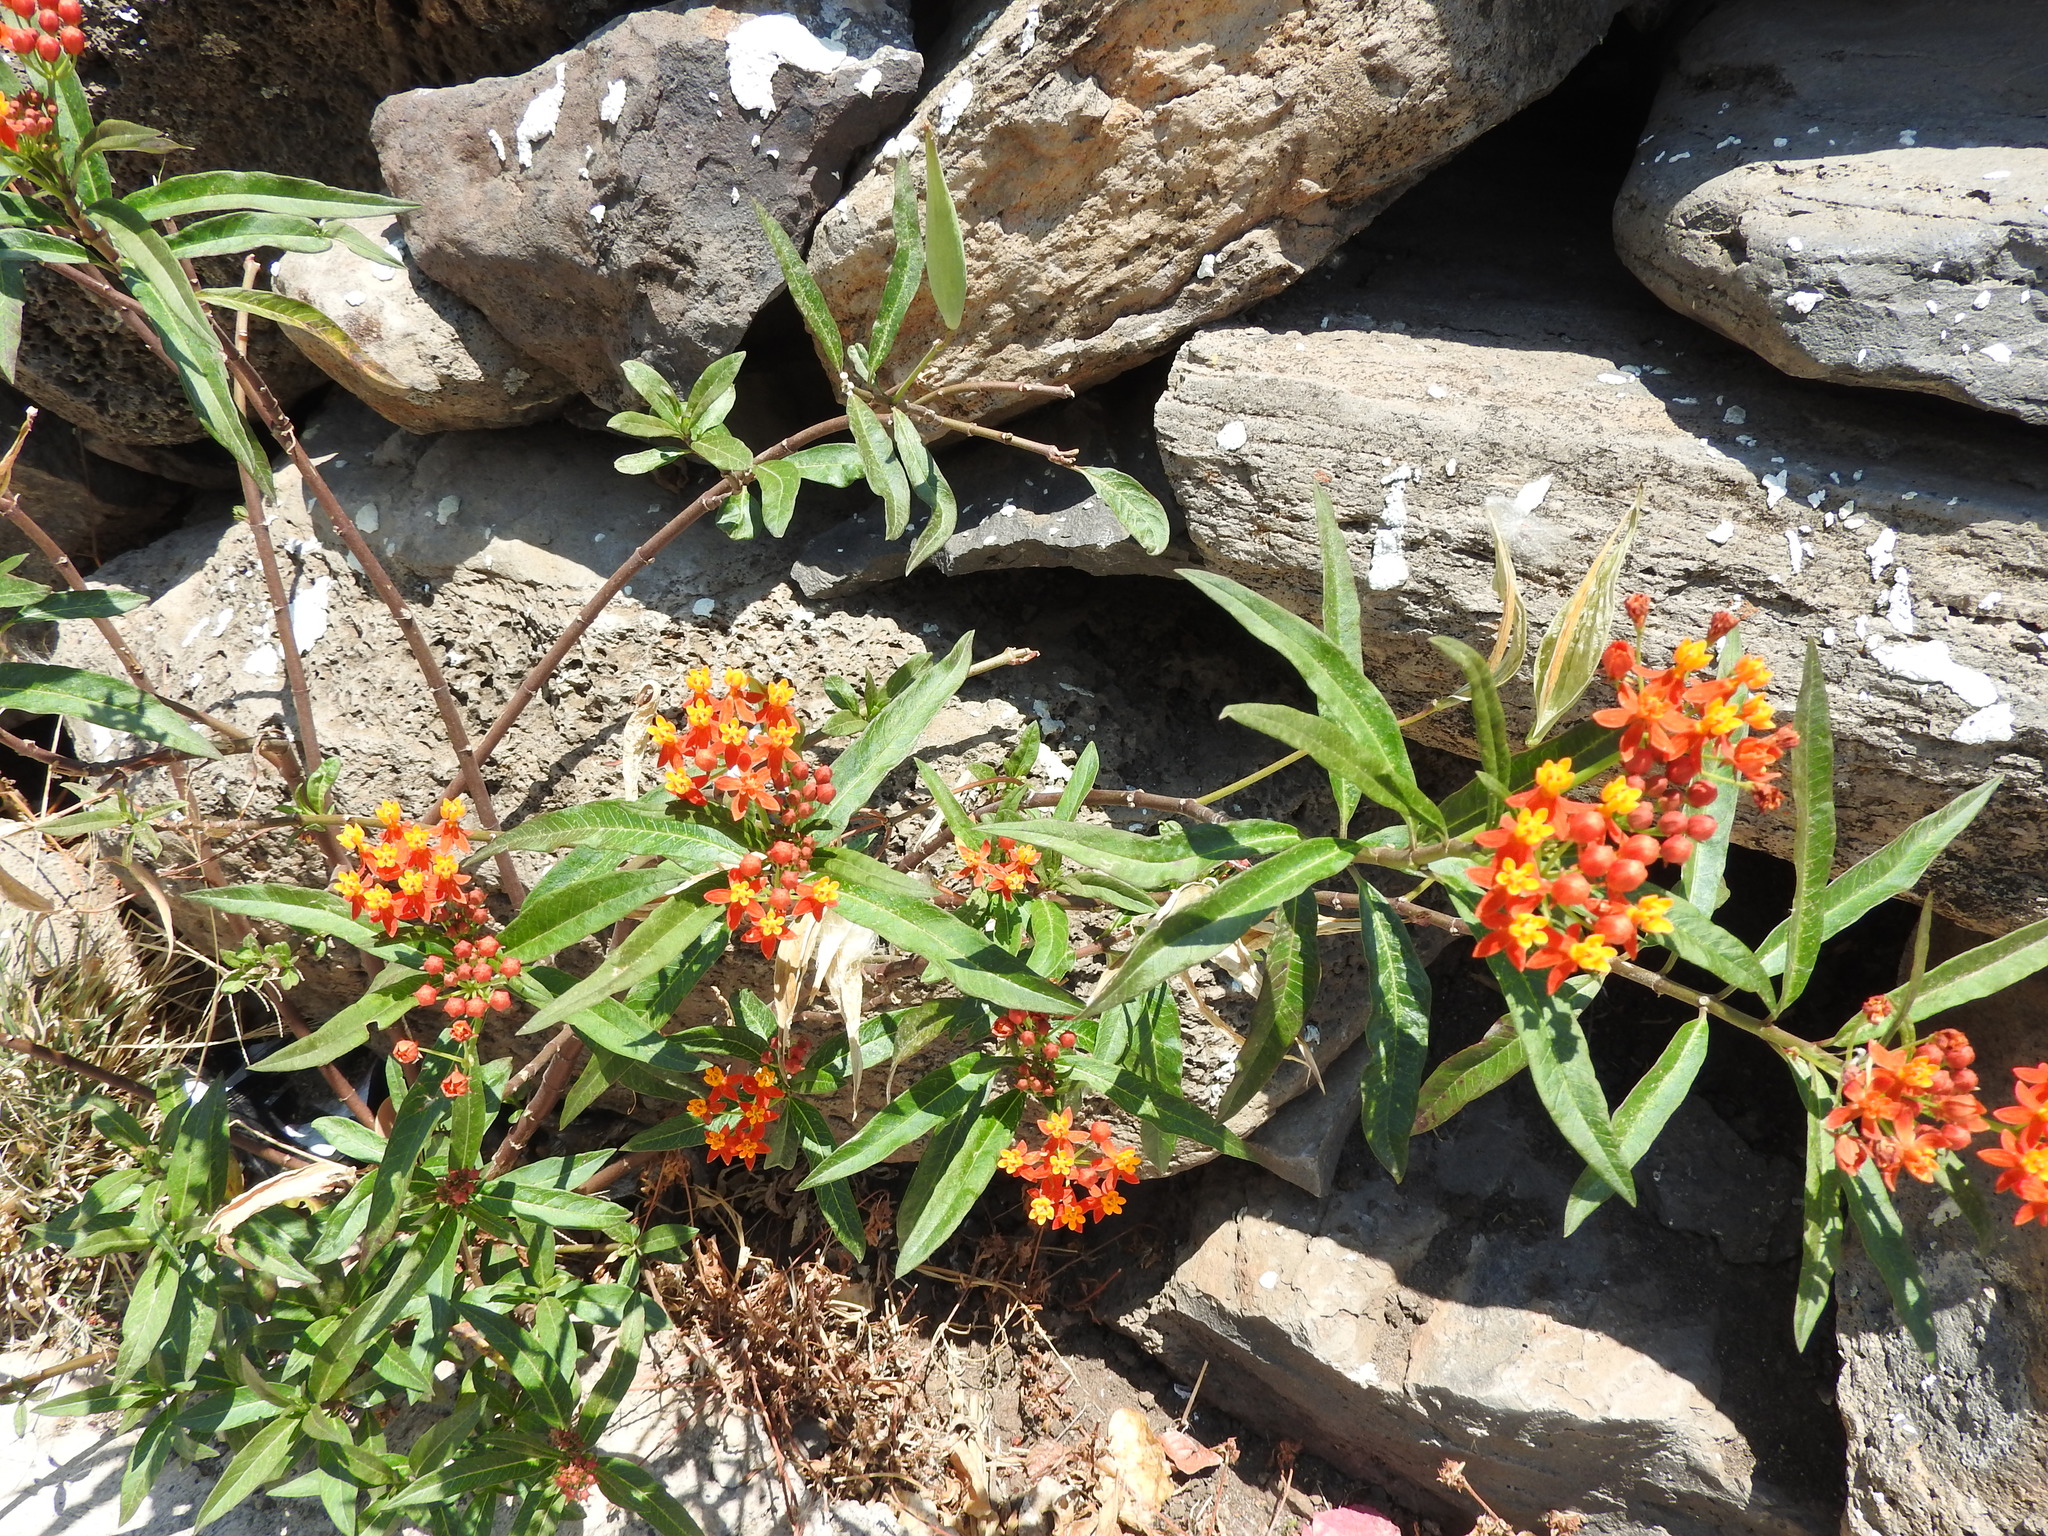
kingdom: Plantae
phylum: Tracheophyta
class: Magnoliopsida
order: Gentianales
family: Apocynaceae
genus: Asclepias
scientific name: Asclepias curassavica
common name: Bloodflower
